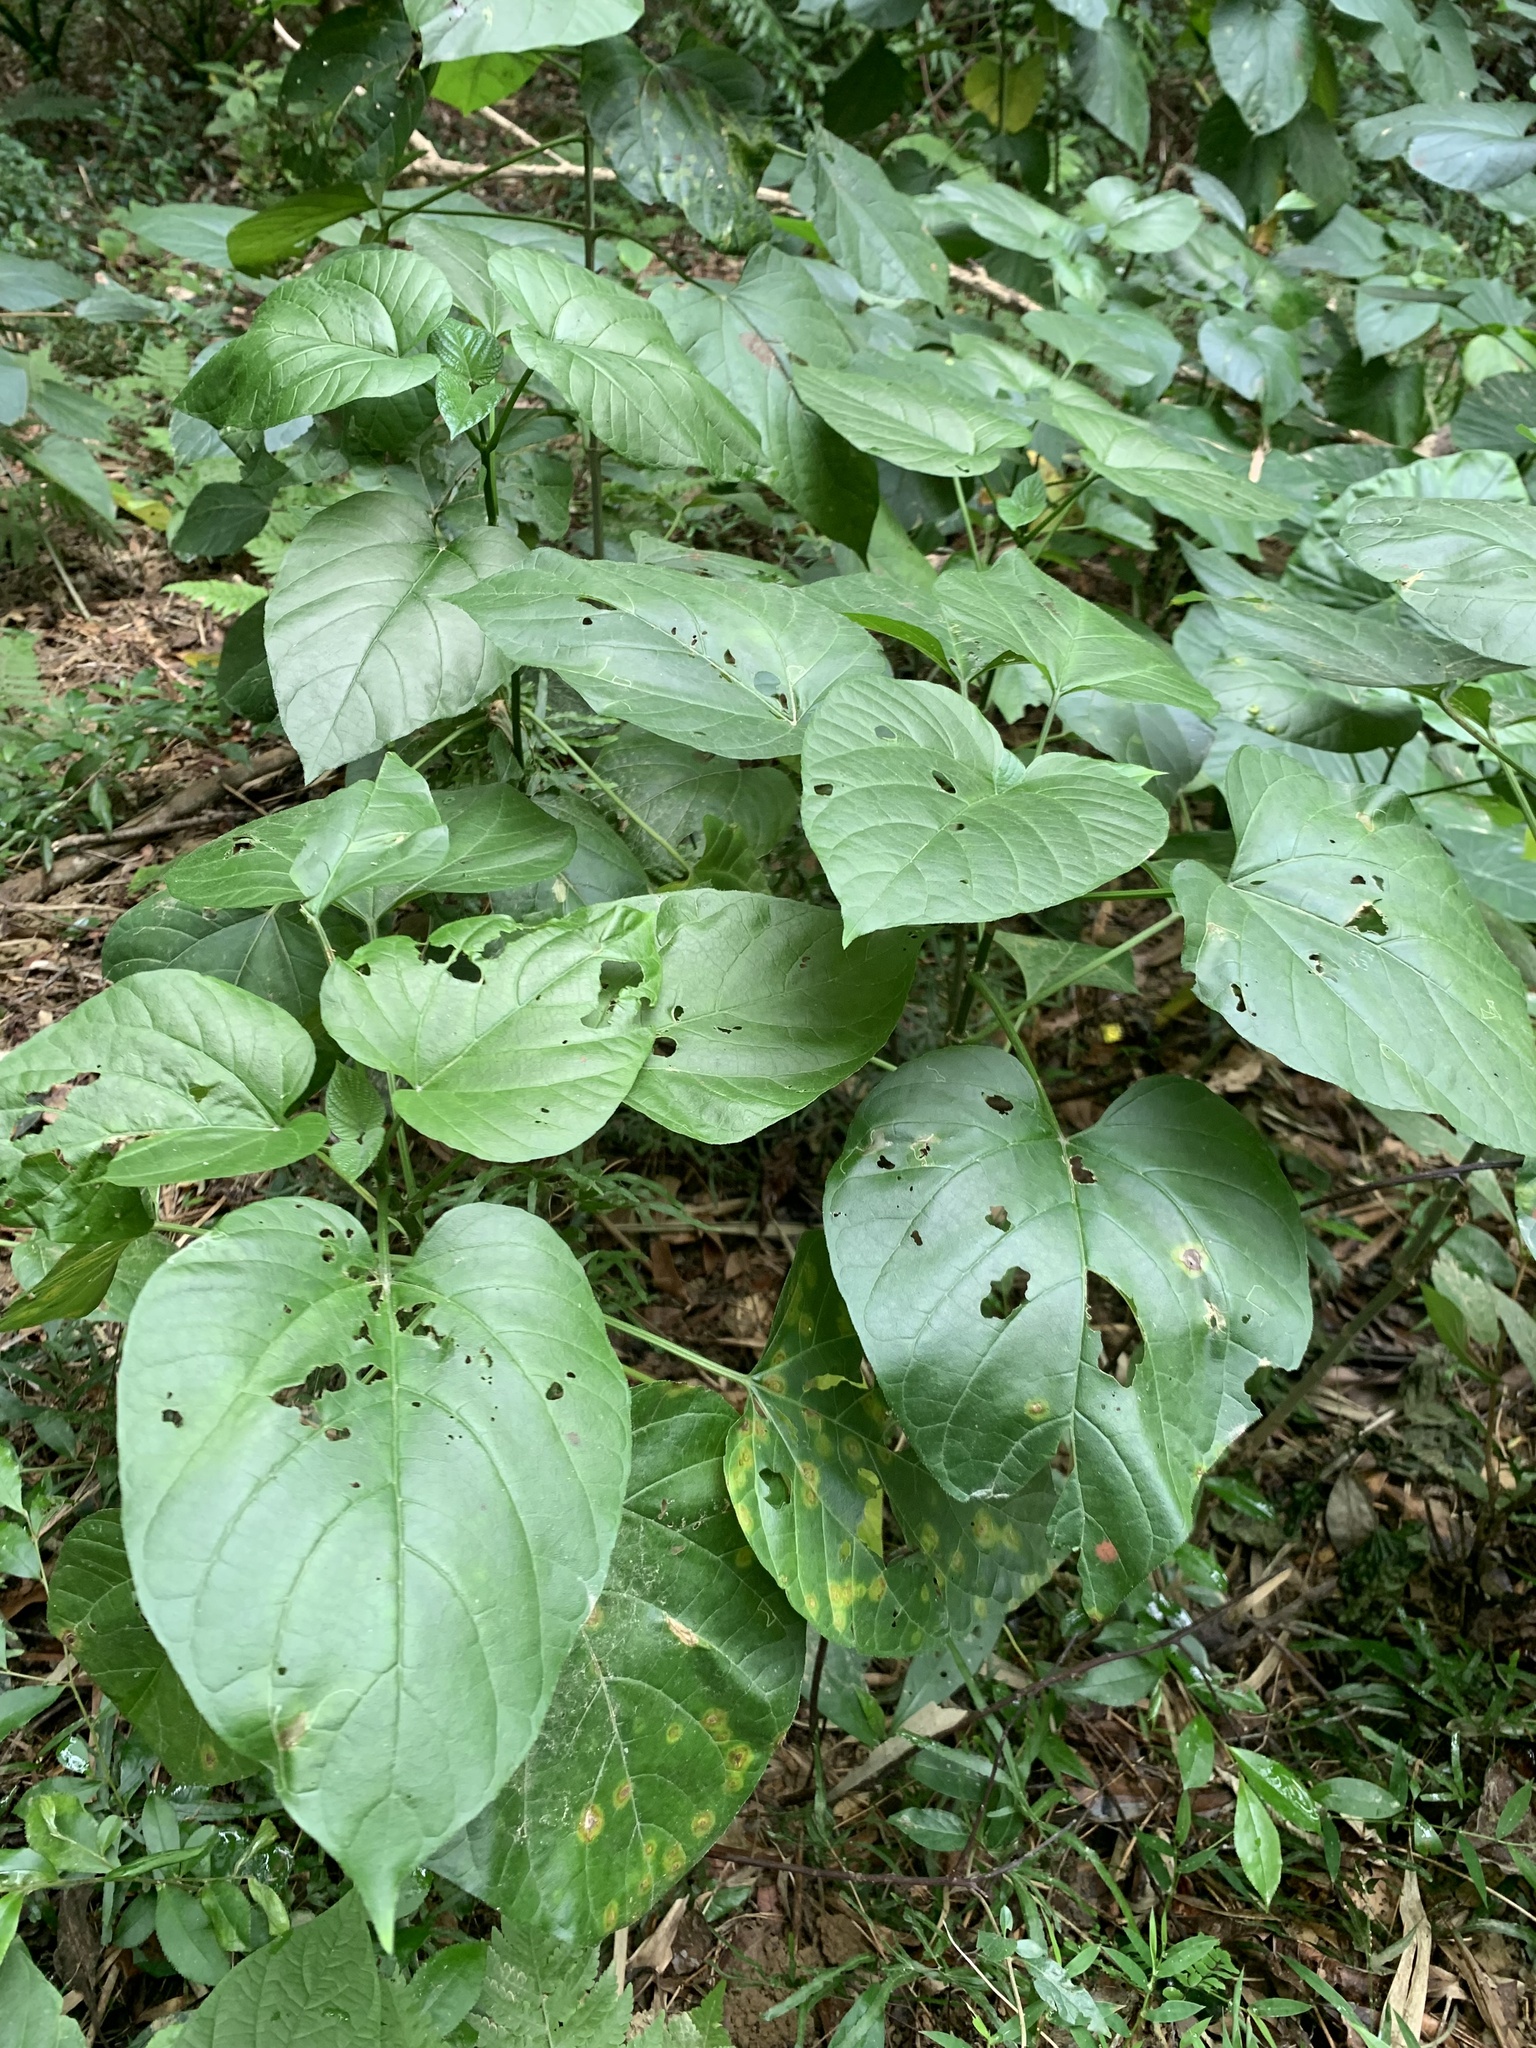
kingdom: Plantae
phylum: Tracheophyta
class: Magnoliopsida
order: Lamiales
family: Lamiaceae
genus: Clerodendrum
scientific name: Clerodendrum japonicum
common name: Japanese glorybower
